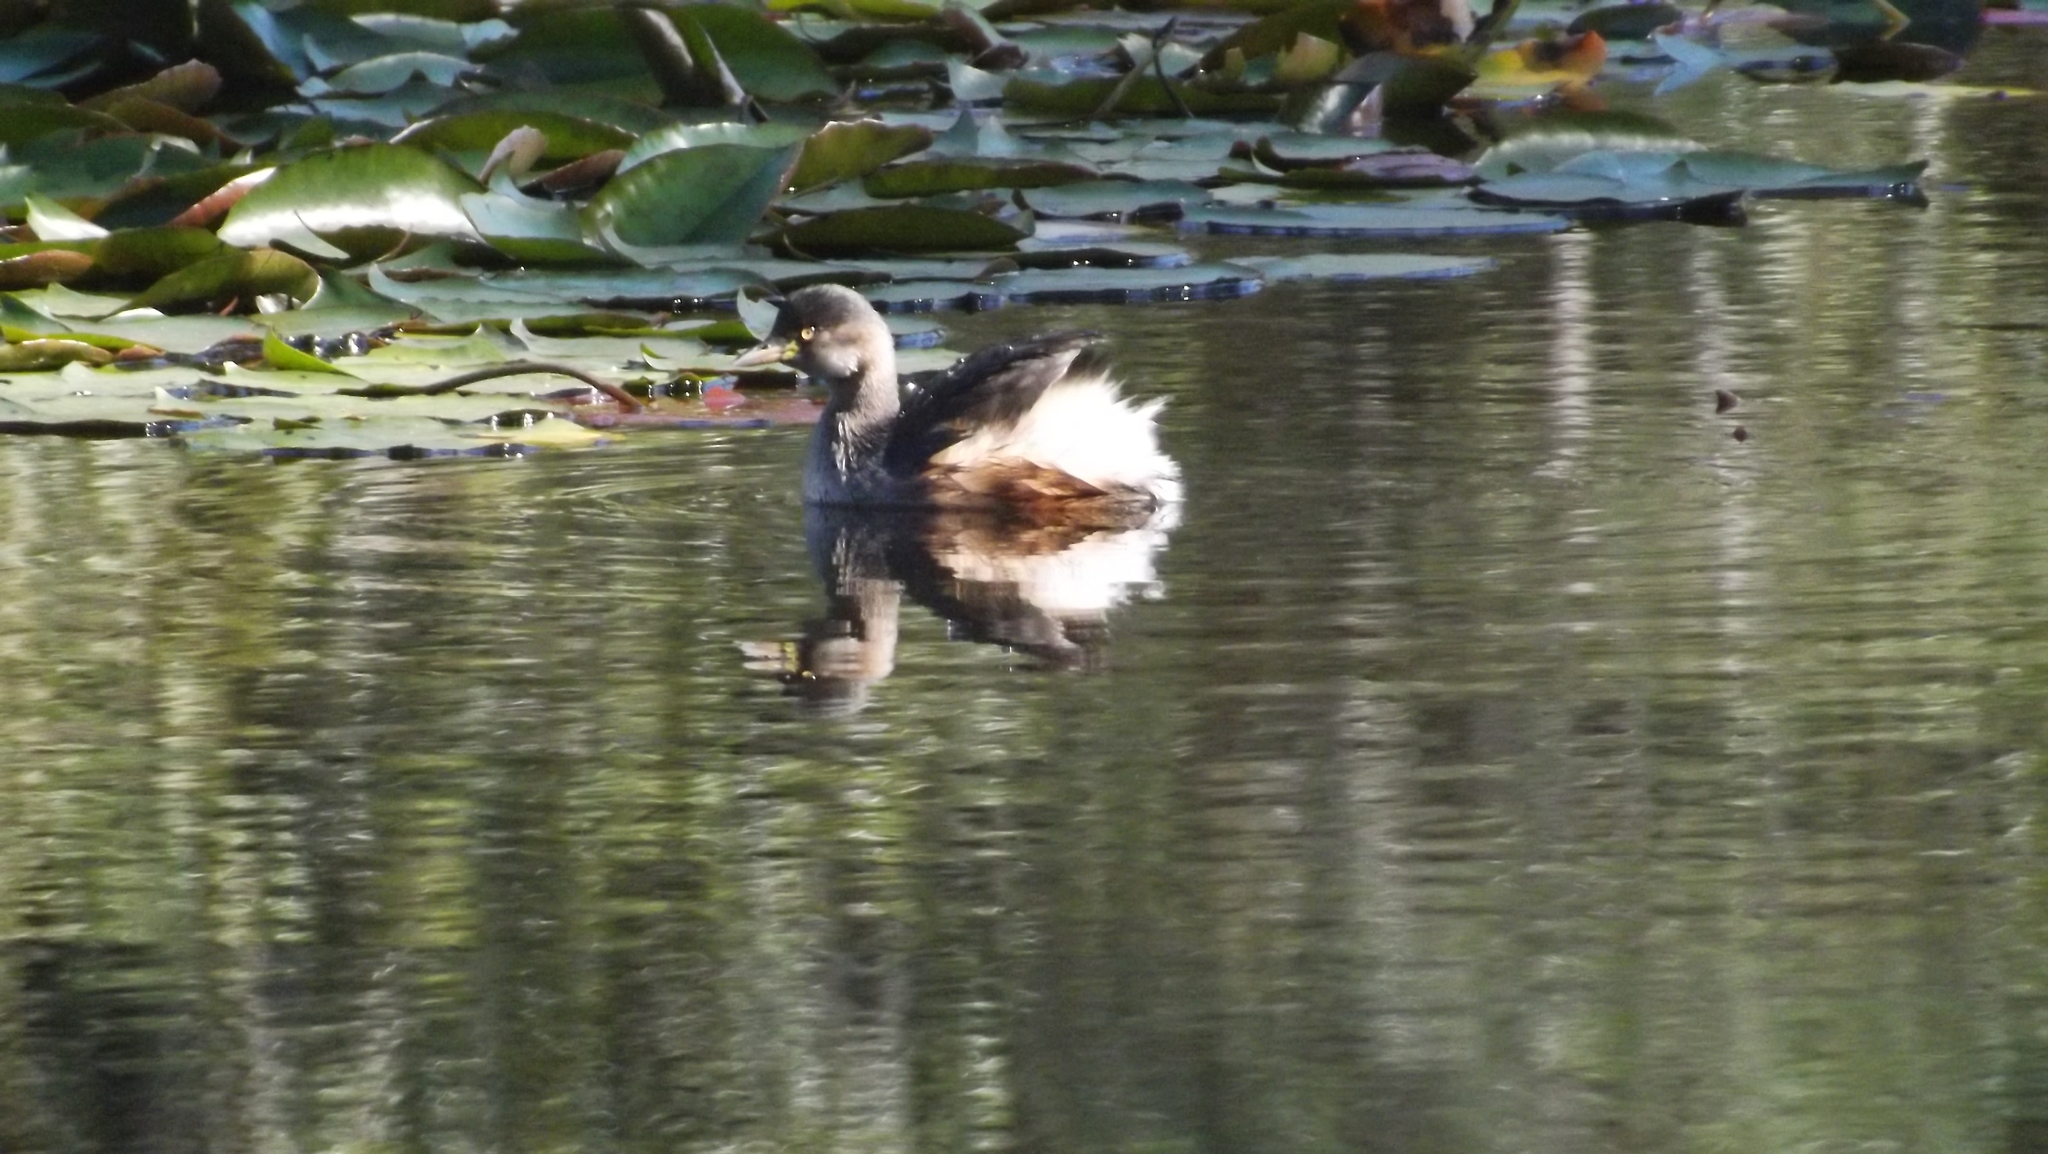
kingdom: Animalia
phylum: Chordata
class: Aves
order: Podicipediformes
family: Podicipedidae
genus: Tachybaptus
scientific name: Tachybaptus novaehollandiae
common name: Australasian grebe
